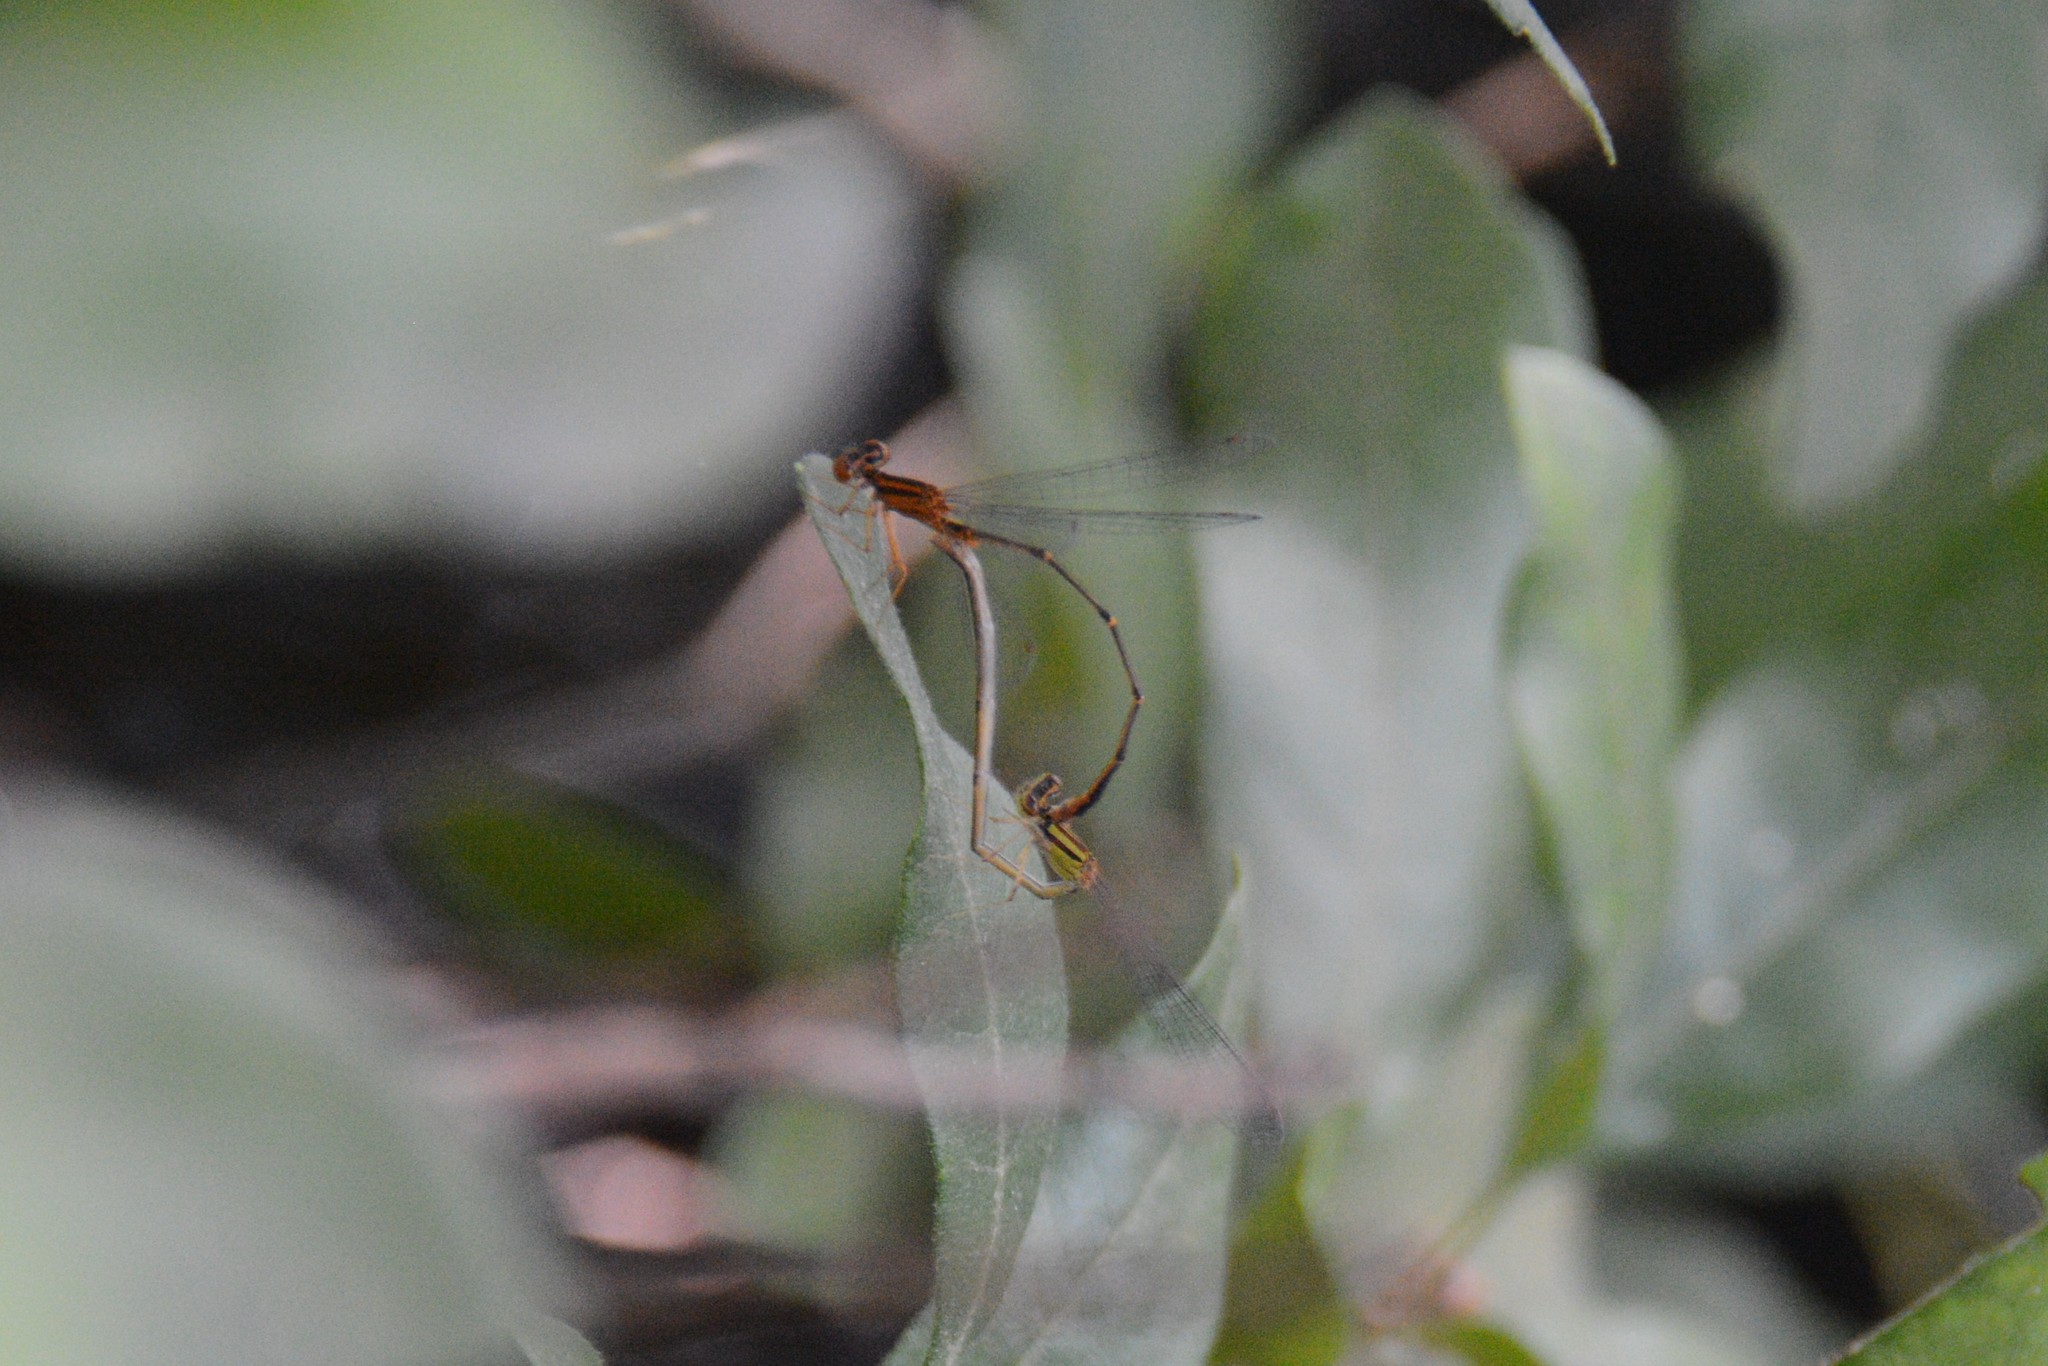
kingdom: Animalia
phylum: Arthropoda
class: Insecta
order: Odonata
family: Coenagrionidae
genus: Enallagma
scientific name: Enallagma signatum
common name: Orange bluet
